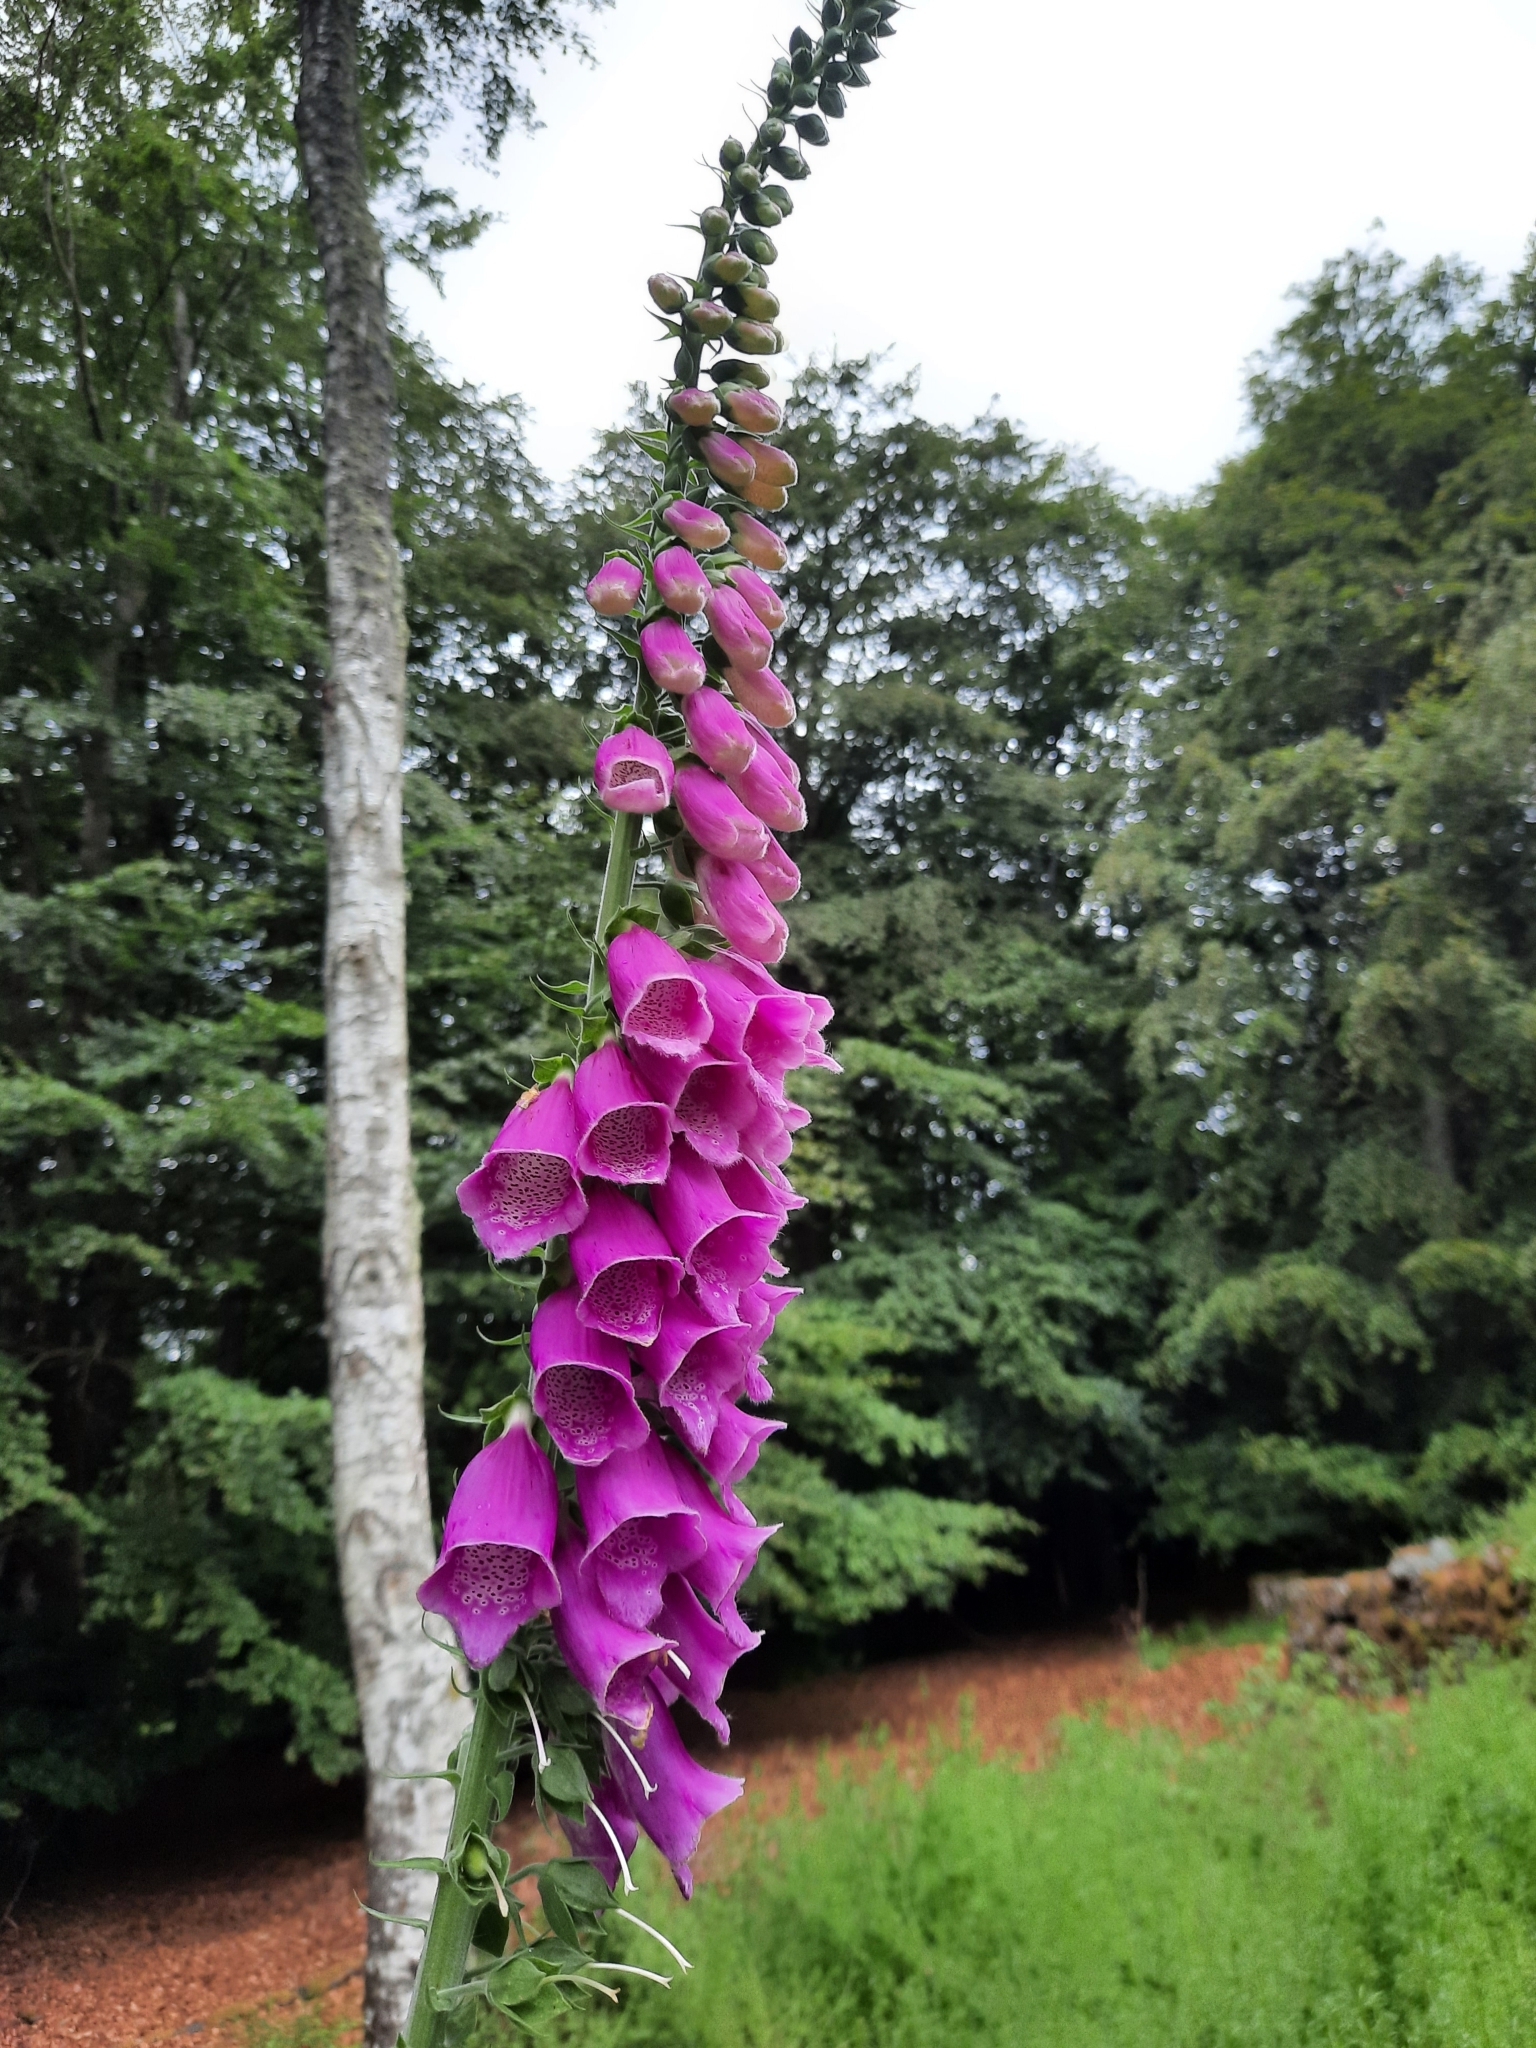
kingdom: Plantae
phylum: Tracheophyta
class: Magnoliopsida
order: Lamiales
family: Plantaginaceae
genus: Digitalis
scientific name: Digitalis purpurea
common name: Foxglove
